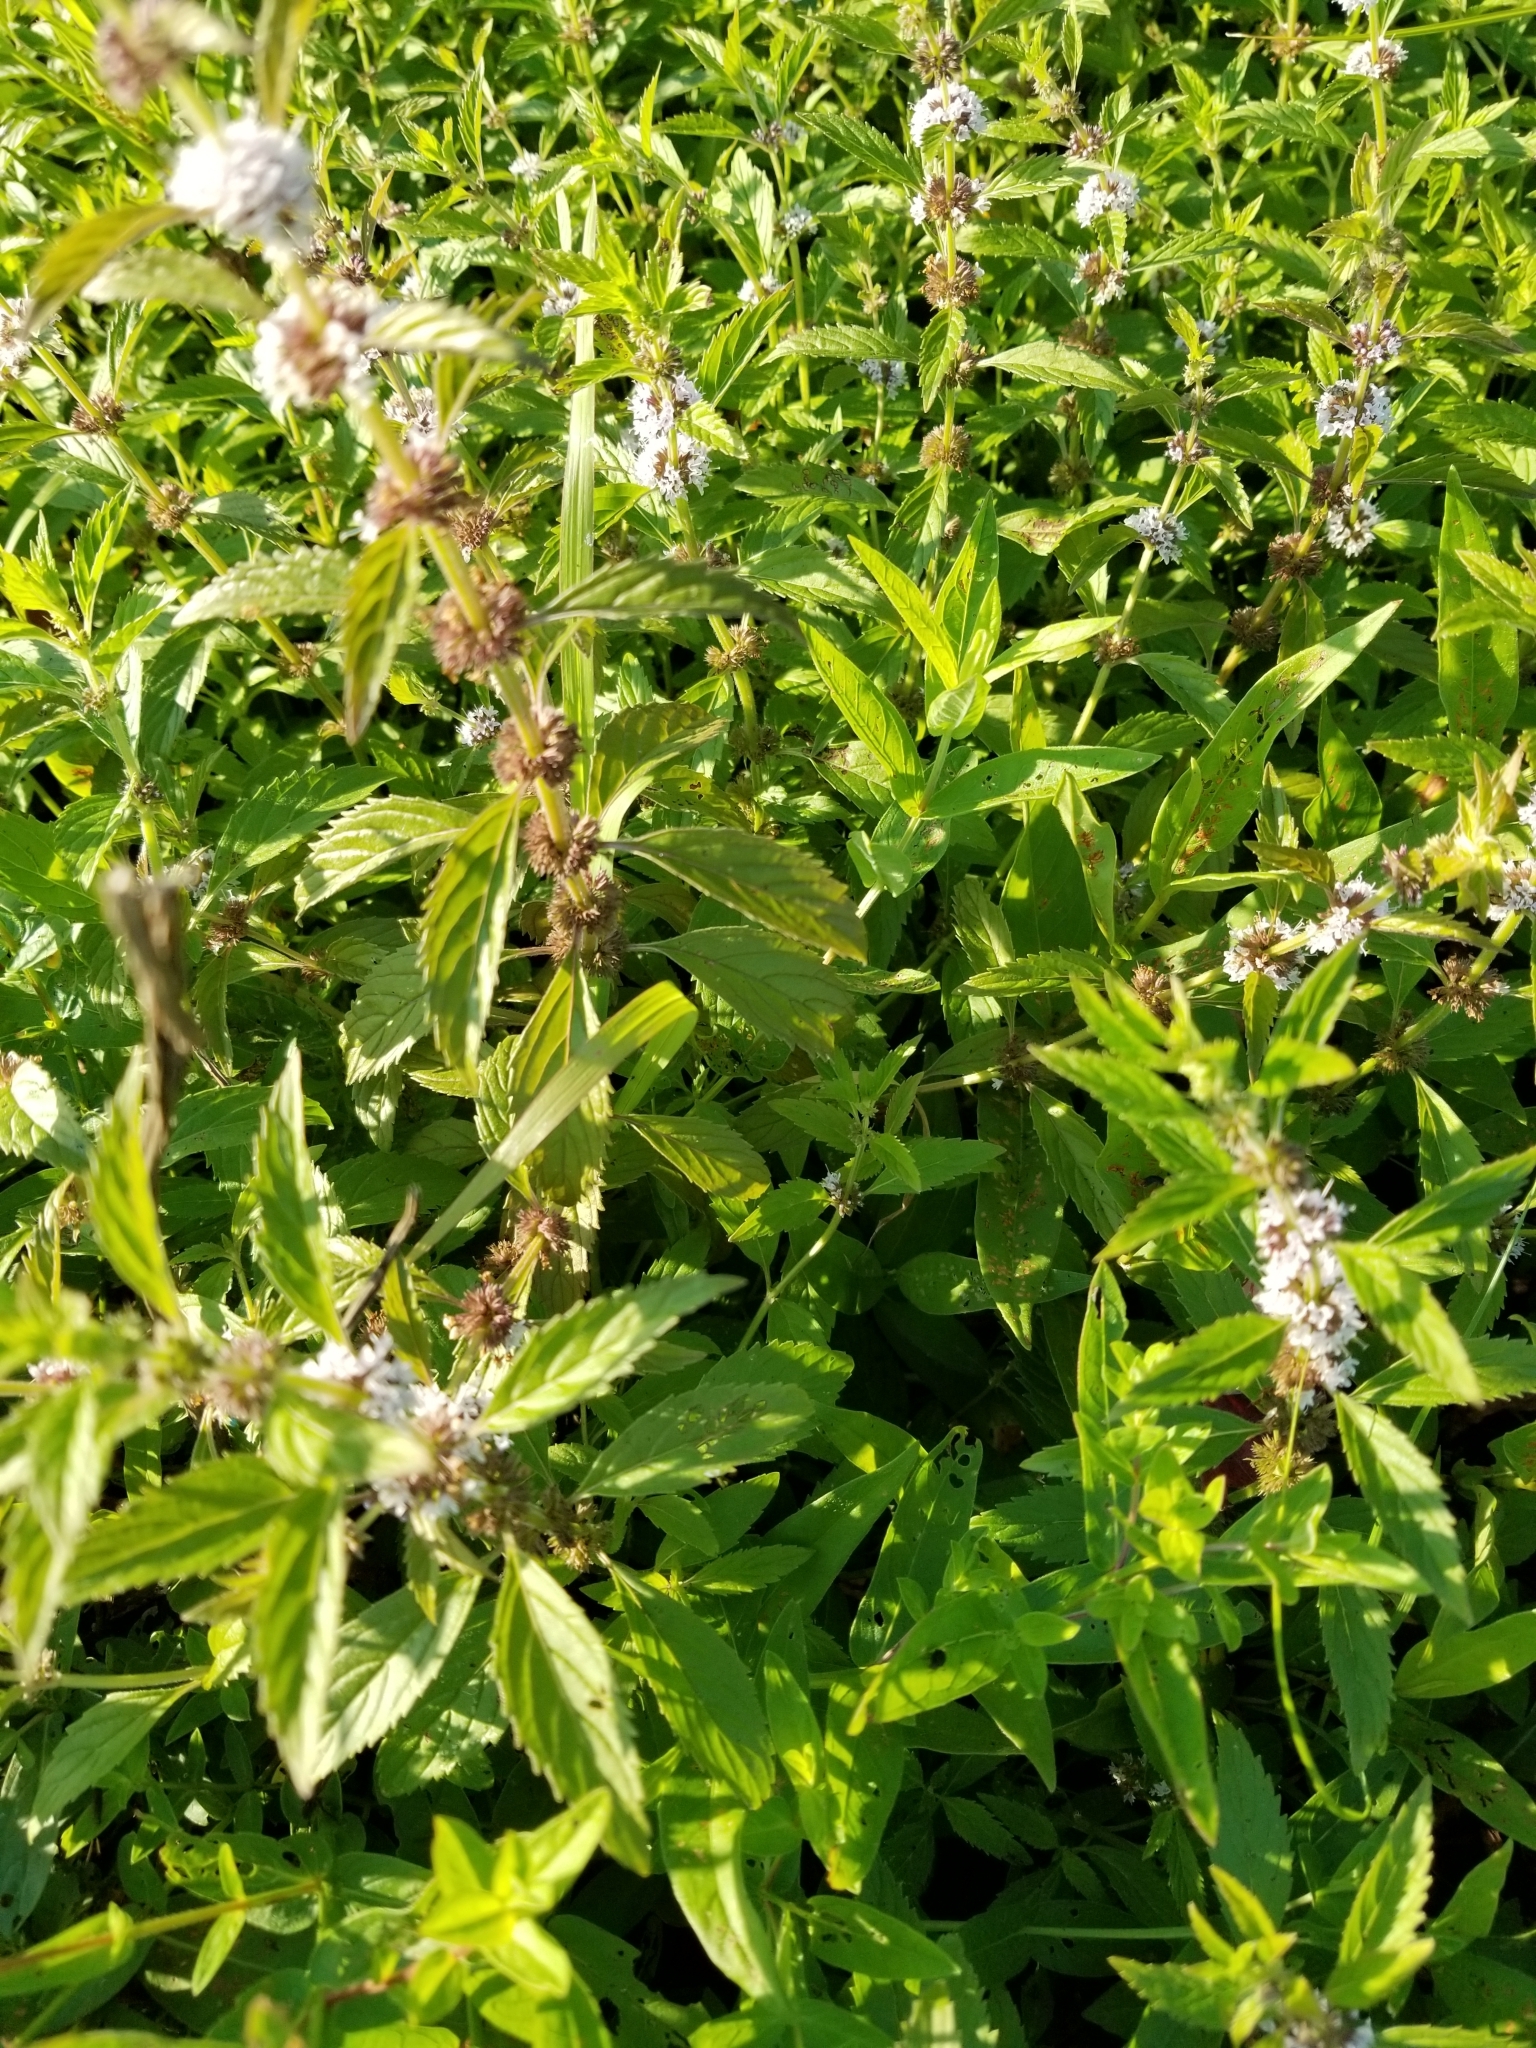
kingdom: Plantae
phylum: Tracheophyta
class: Magnoliopsida
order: Lamiales
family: Lamiaceae
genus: Mentha
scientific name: Mentha canadensis
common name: American corn mint
